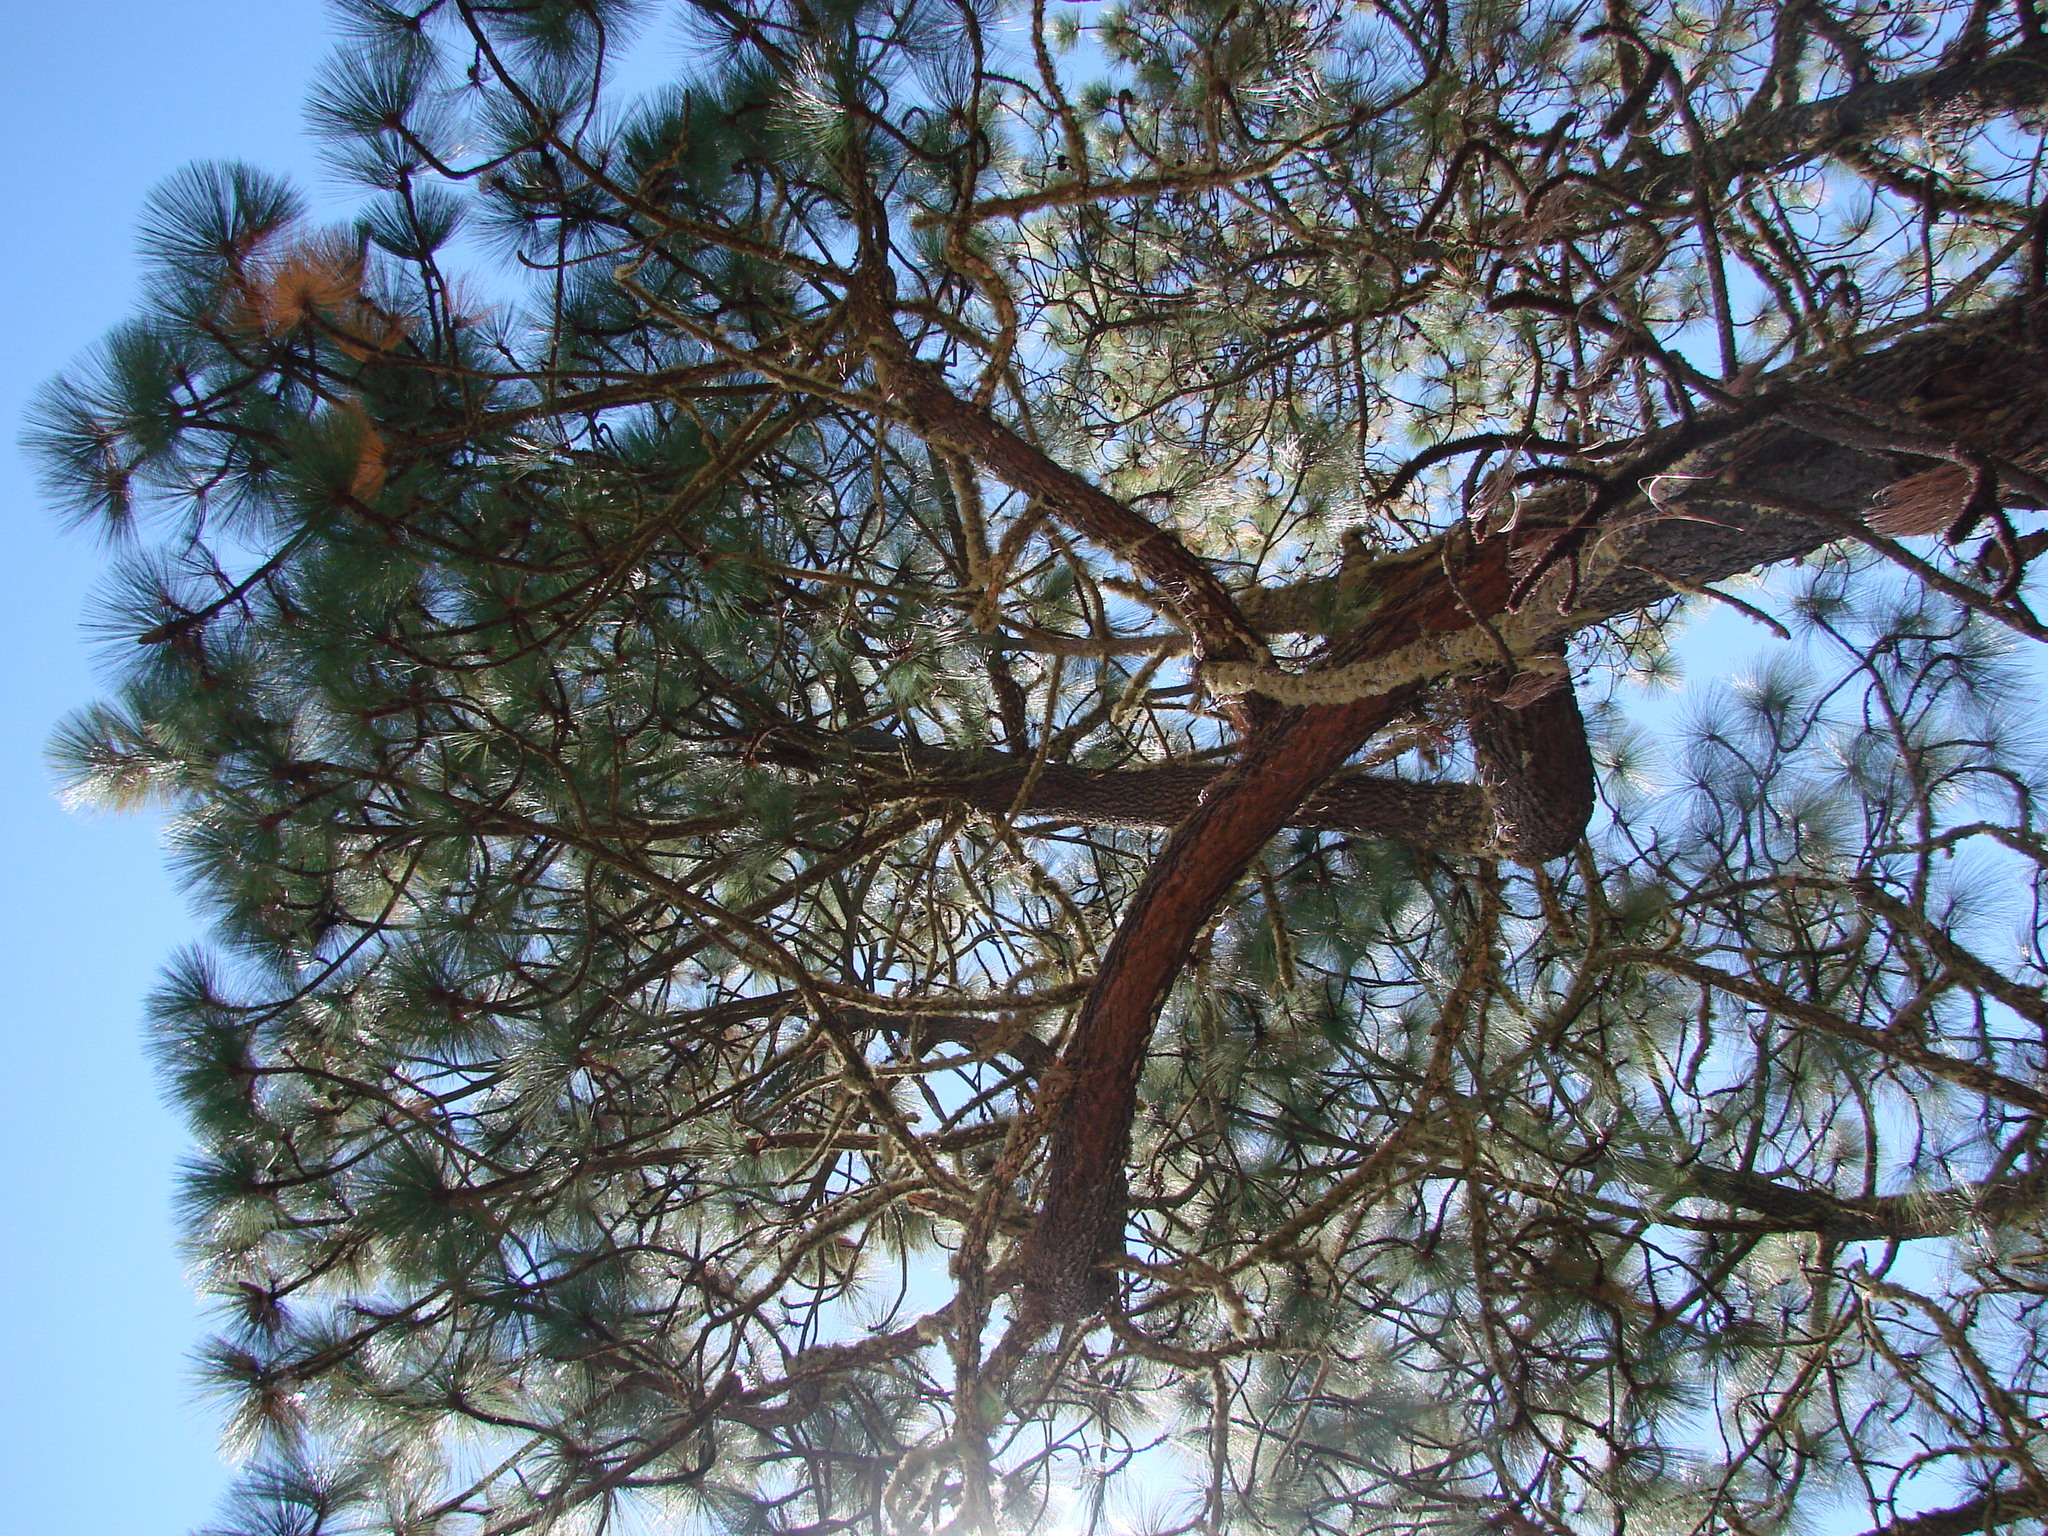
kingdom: Plantae
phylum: Tracheophyta
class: Pinopsida
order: Pinales
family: Pinaceae
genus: Pinus
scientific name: Pinus teocote
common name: Aztec pine
